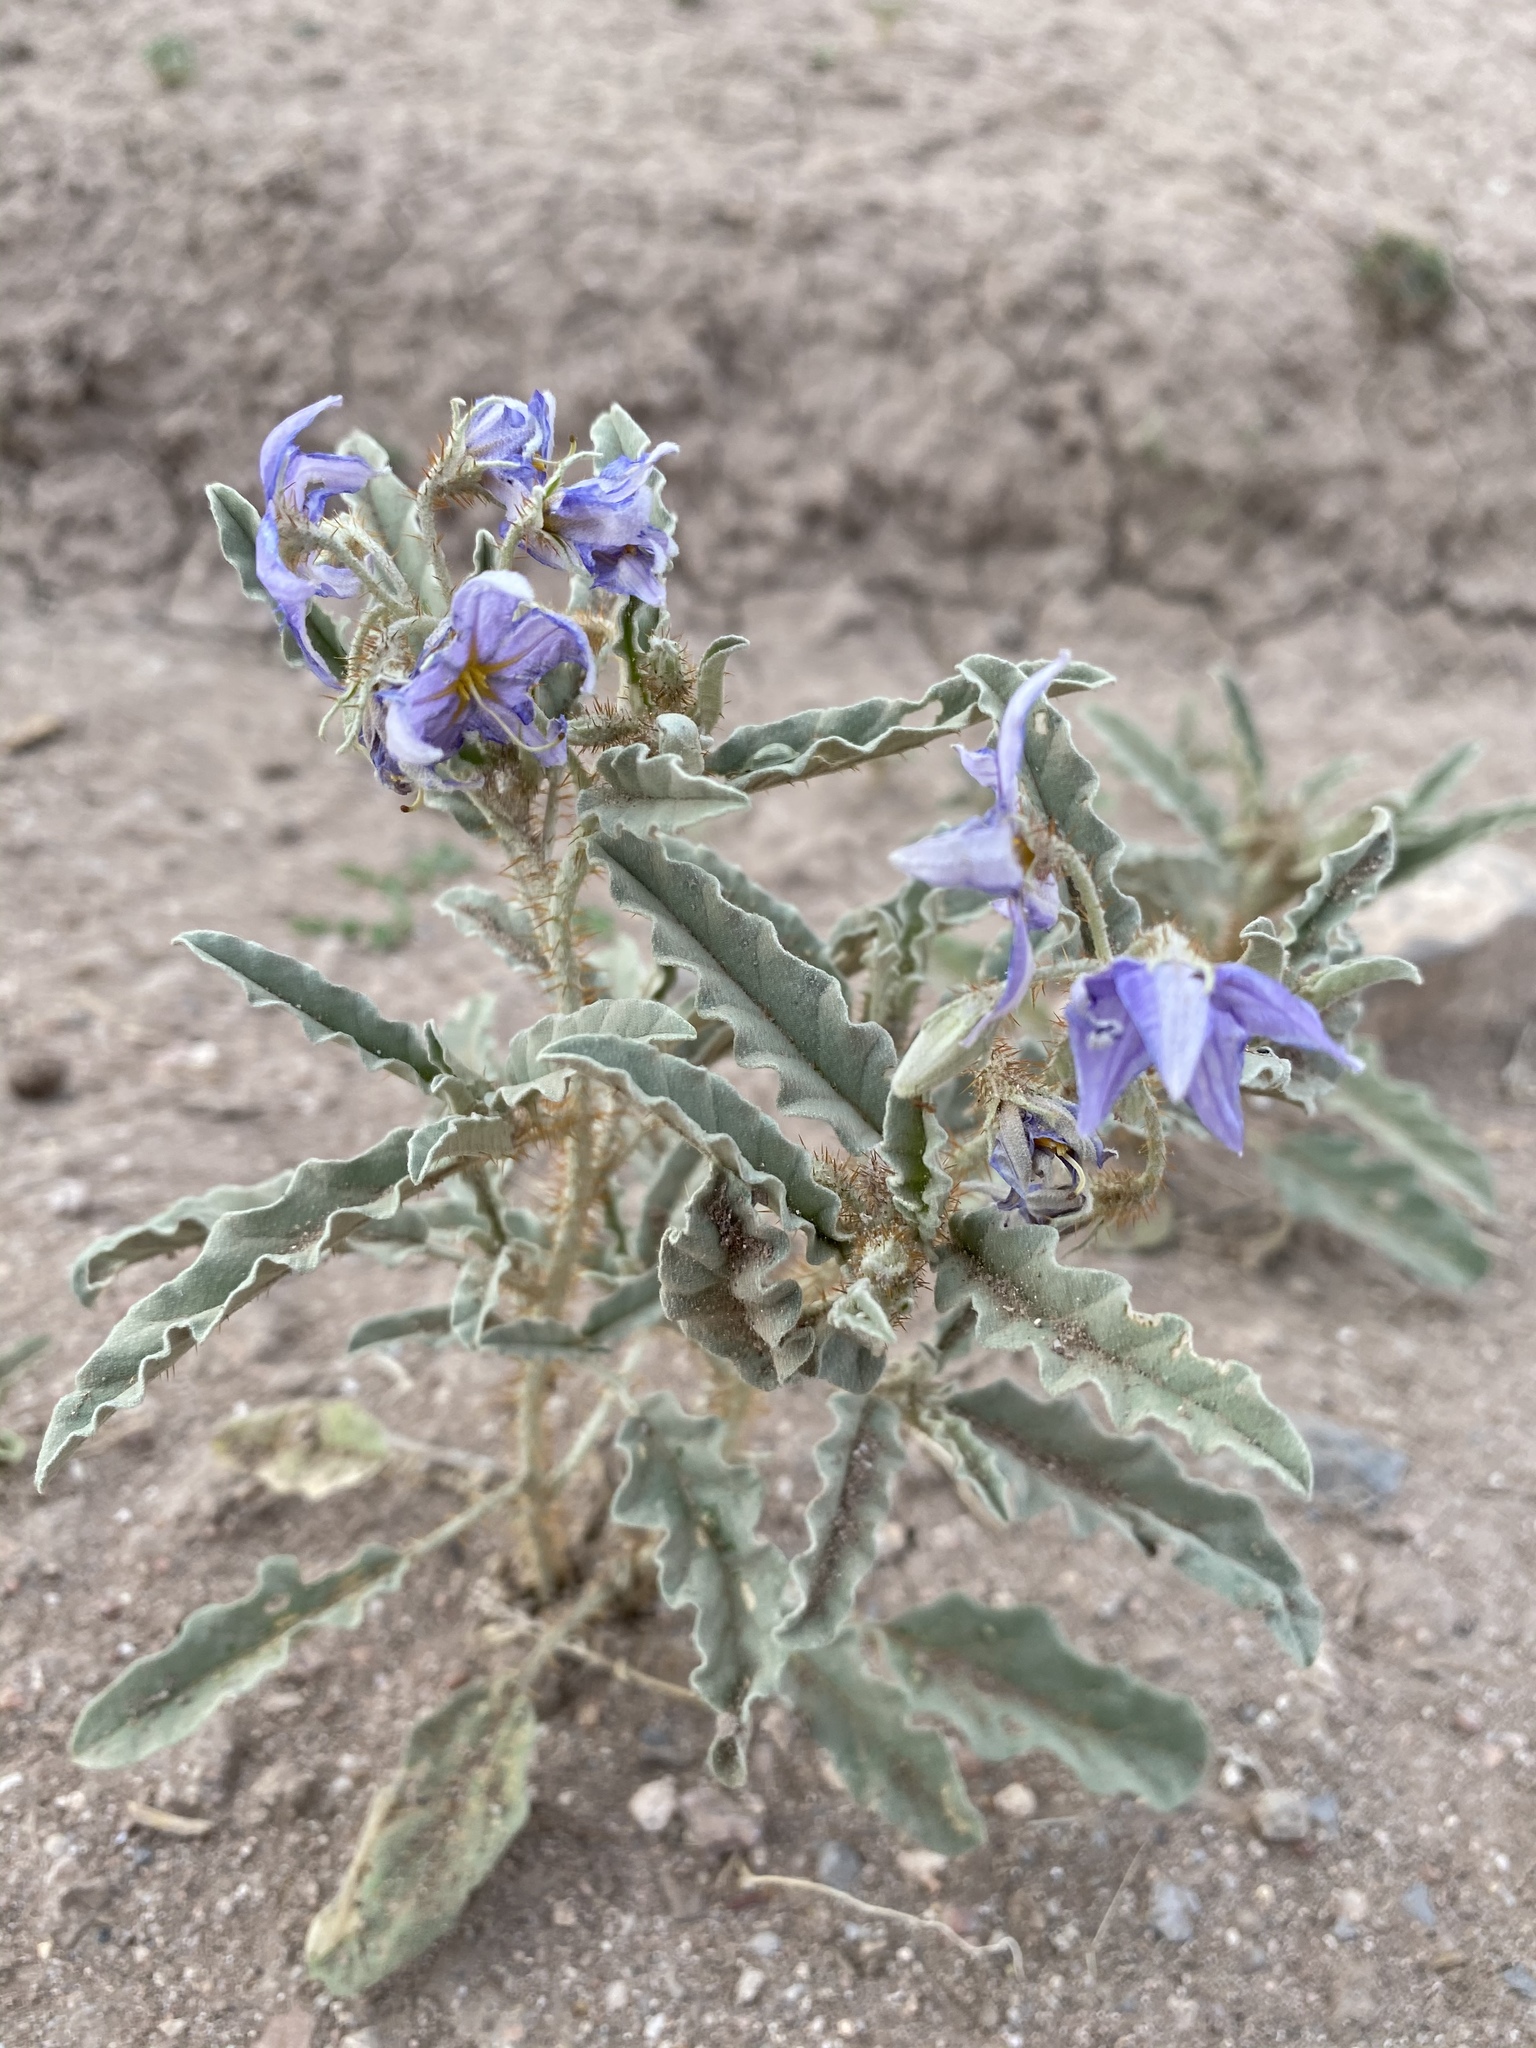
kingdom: Plantae
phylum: Tracheophyta
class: Magnoliopsida
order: Solanales
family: Solanaceae
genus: Solanum
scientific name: Solanum elaeagnifolium
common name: Silverleaf nightshade
